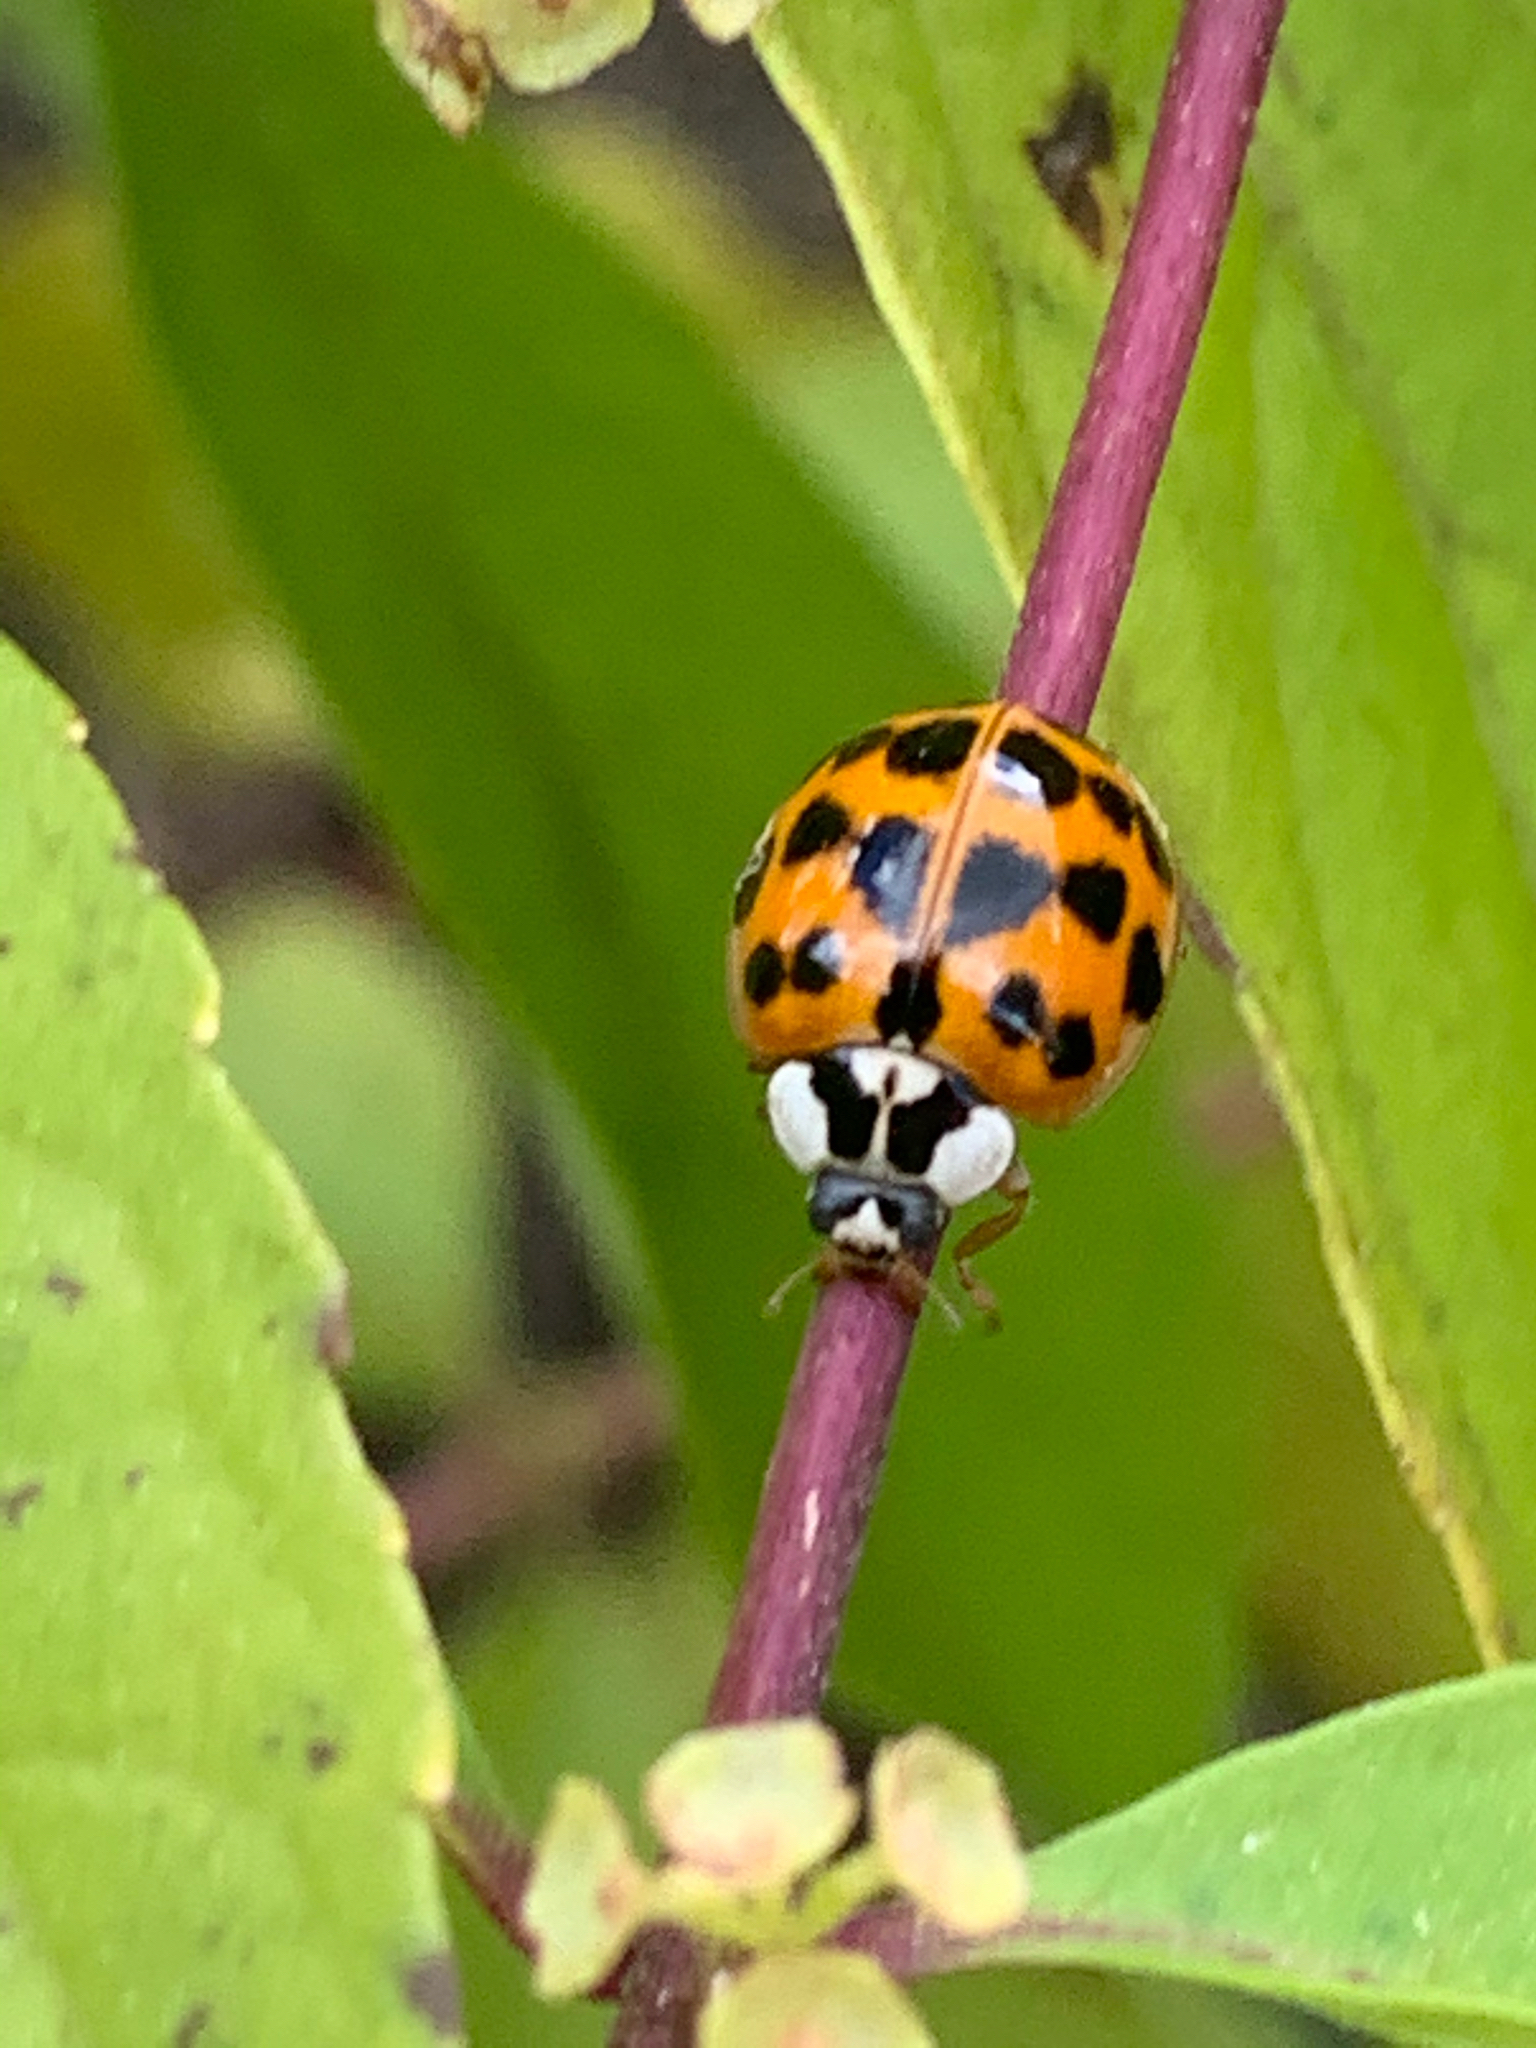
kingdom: Animalia
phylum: Arthropoda
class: Insecta
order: Coleoptera
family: Coccinellidae
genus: Harmonia
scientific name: Harmonia axyridis
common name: Harlequin ladybird
